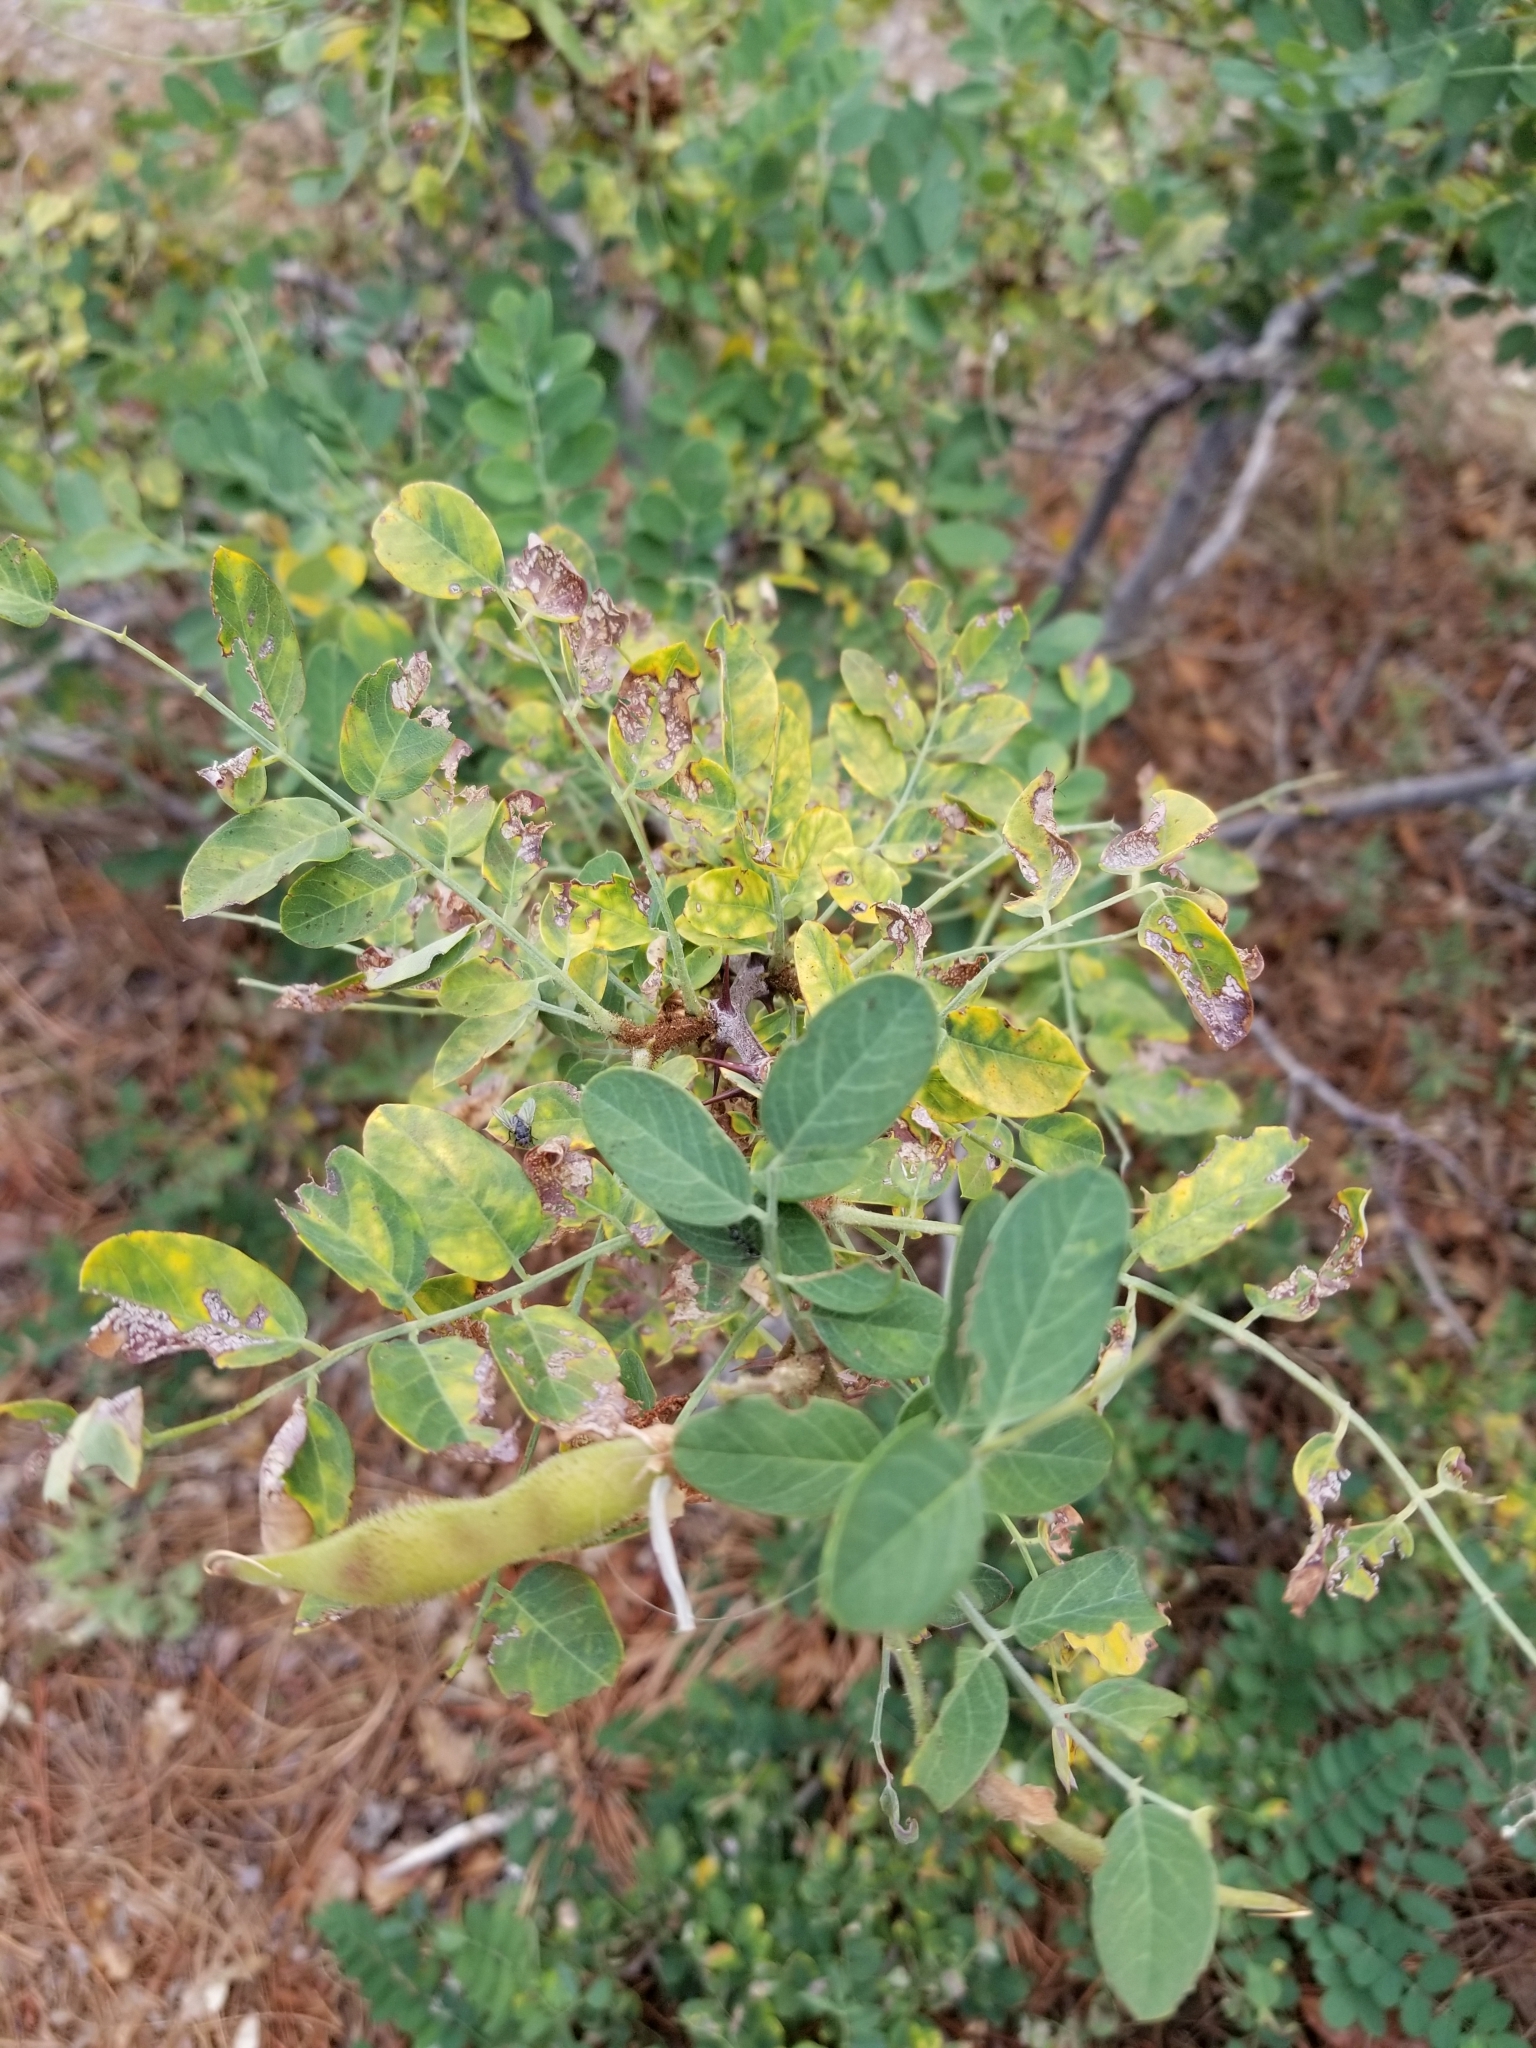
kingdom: Plantae
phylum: Tracheophyta
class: Magnoliopsida
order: Fabales
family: Fabaceae
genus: Robinia
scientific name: Robinia neomexicana
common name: New mexico locust
